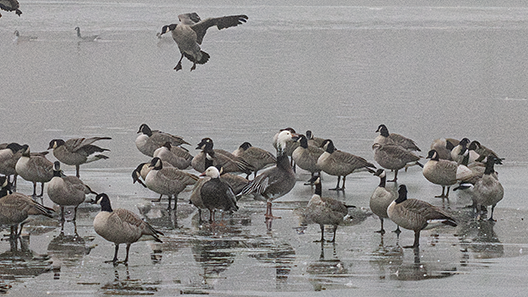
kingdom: Animalia
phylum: Chordata
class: Aves
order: Anseriformes
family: Anatidae
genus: Anser
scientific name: Anser caerulescens
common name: Snow goose
